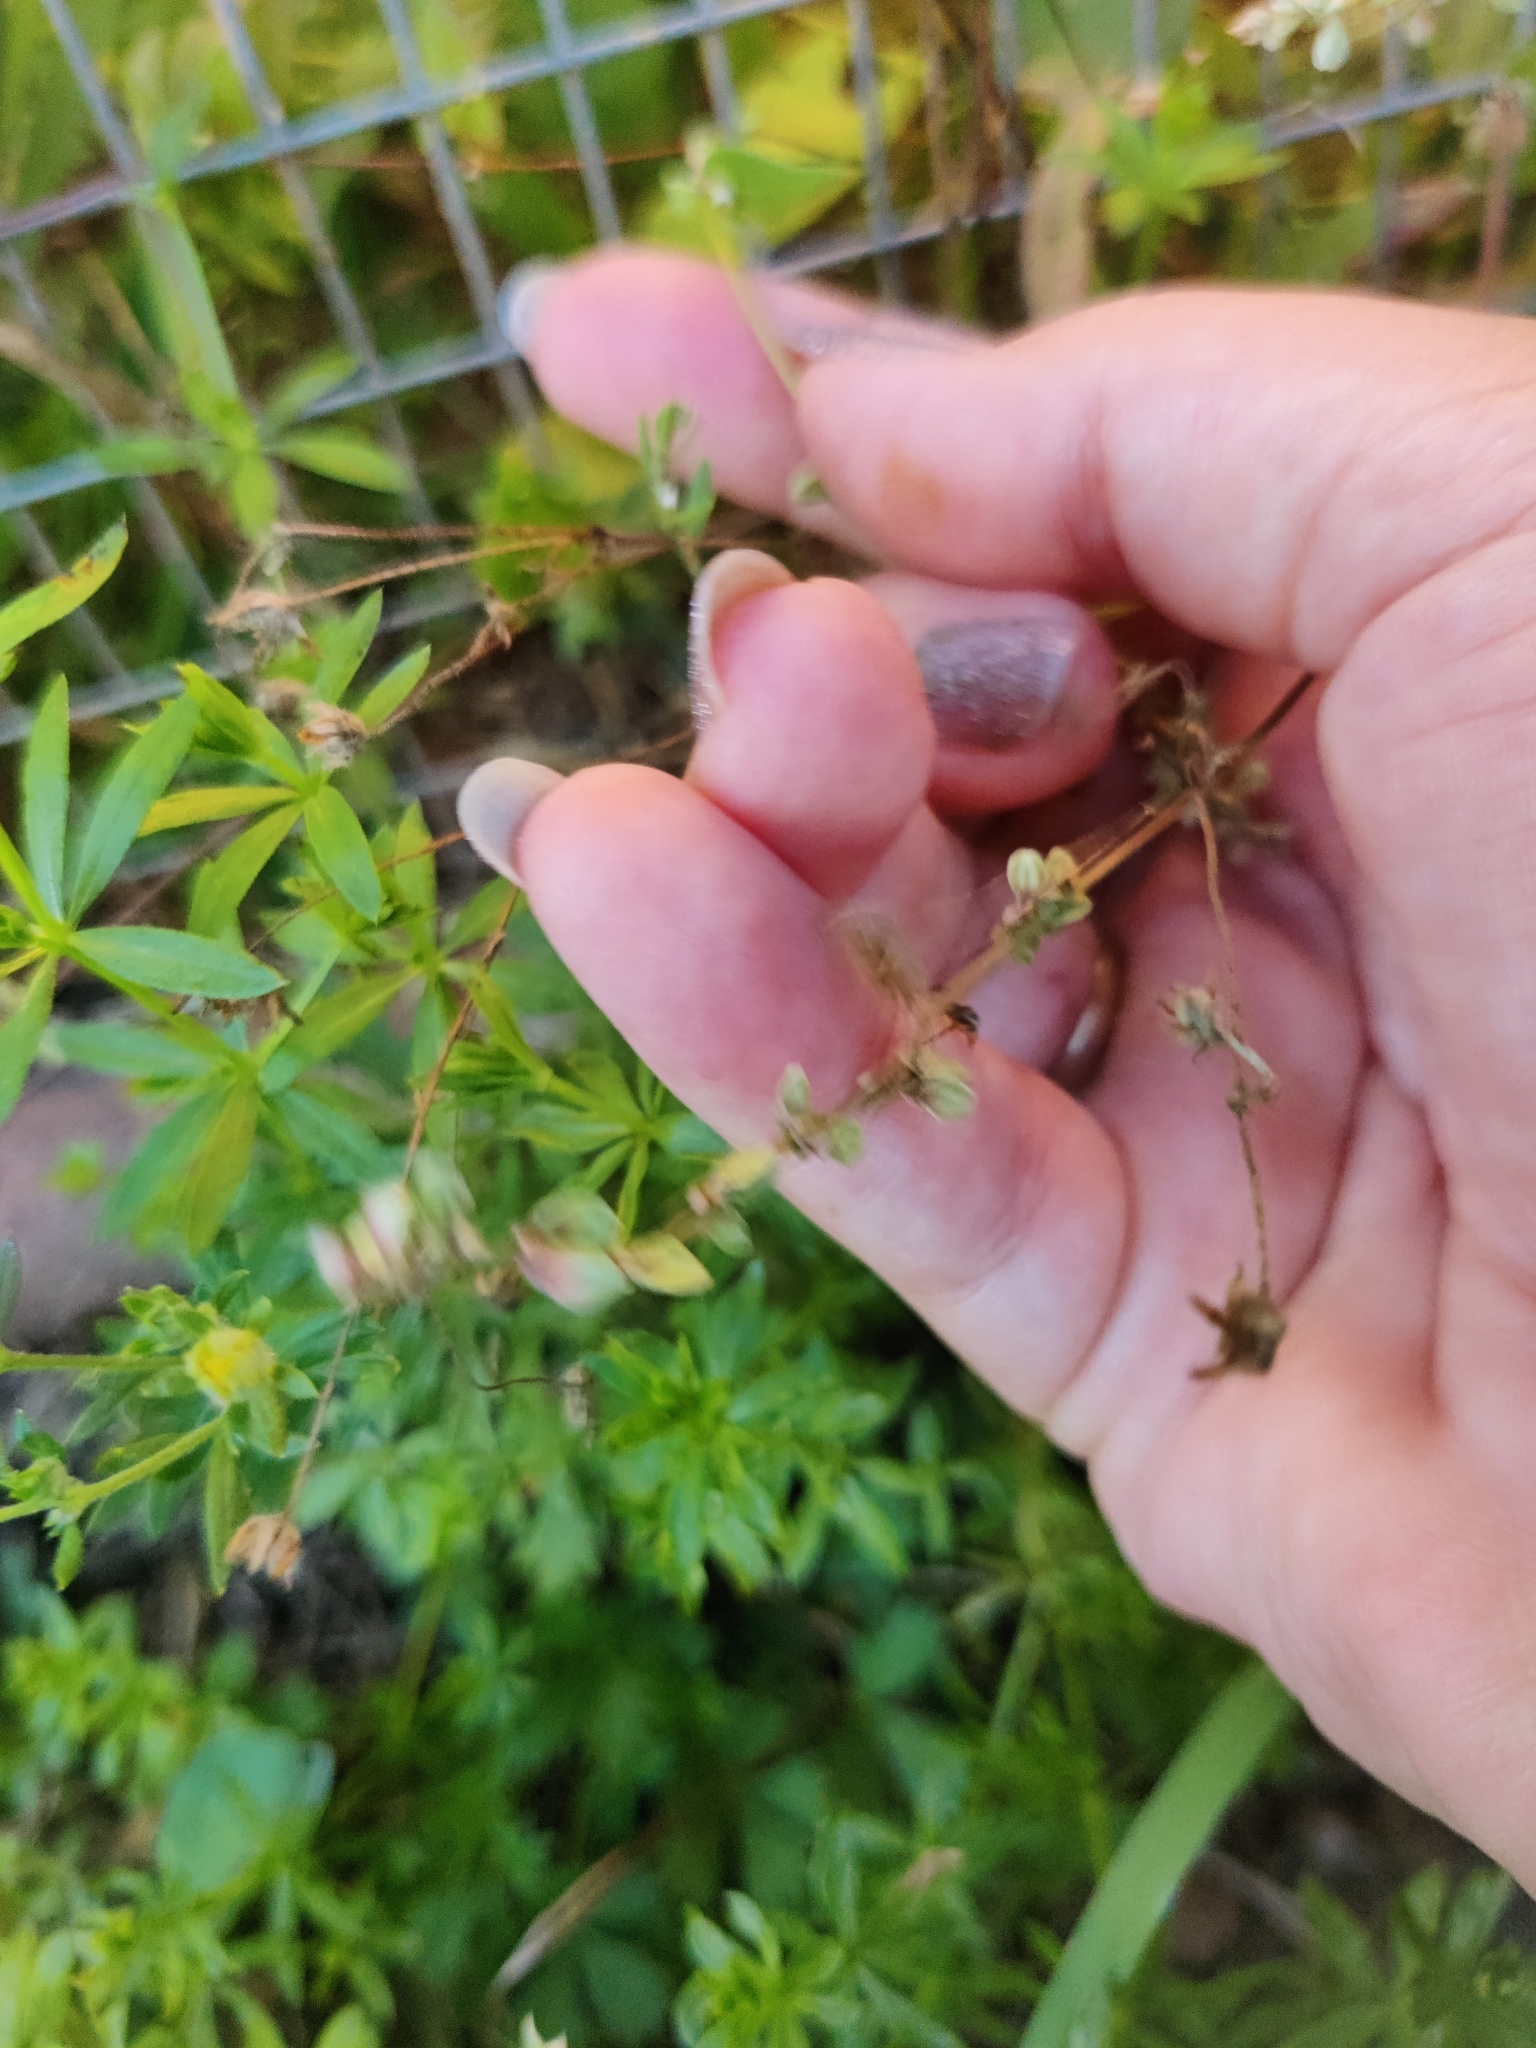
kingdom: Plantae
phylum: Tracheophyta
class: Magnoliopsida
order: Caryophyllales
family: Polygonaceae
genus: Fallopia
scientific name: Fallopia convolvulus
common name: Black bindweed
